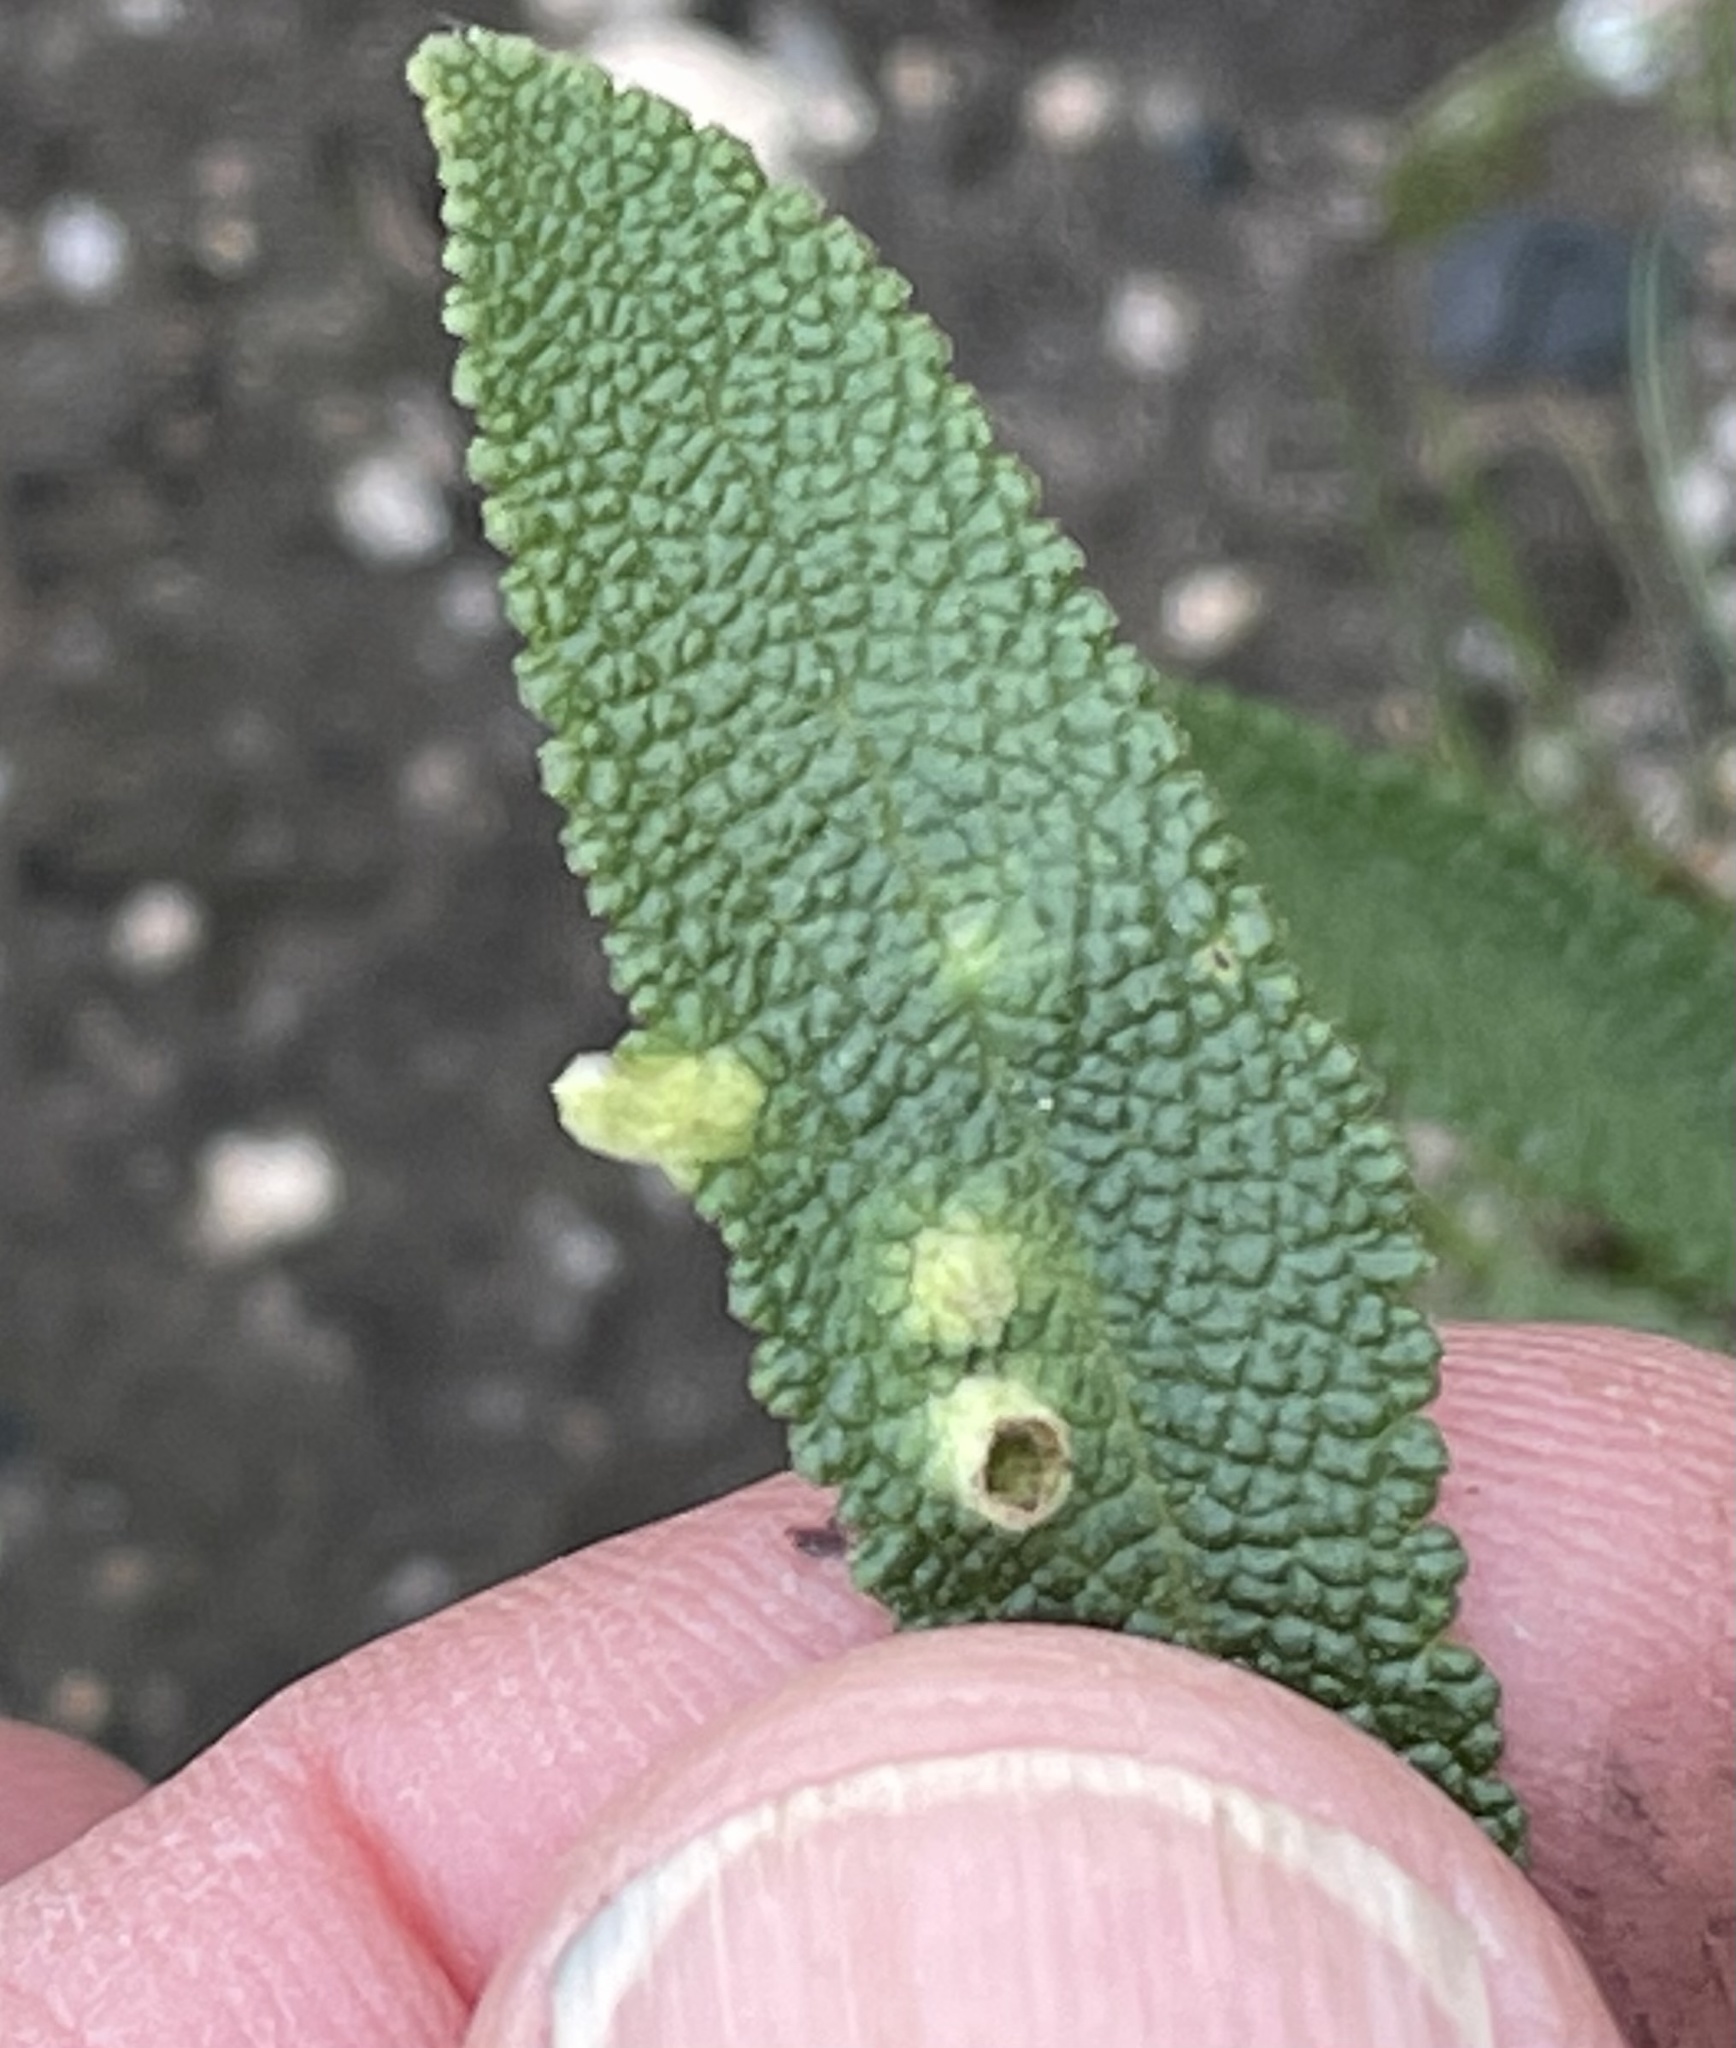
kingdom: Animalia
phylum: Arthropoda
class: Insecta
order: Diptera
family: Cecidomyiidae
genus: Rhopalomyia
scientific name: Rhopalomyia audibertiae
